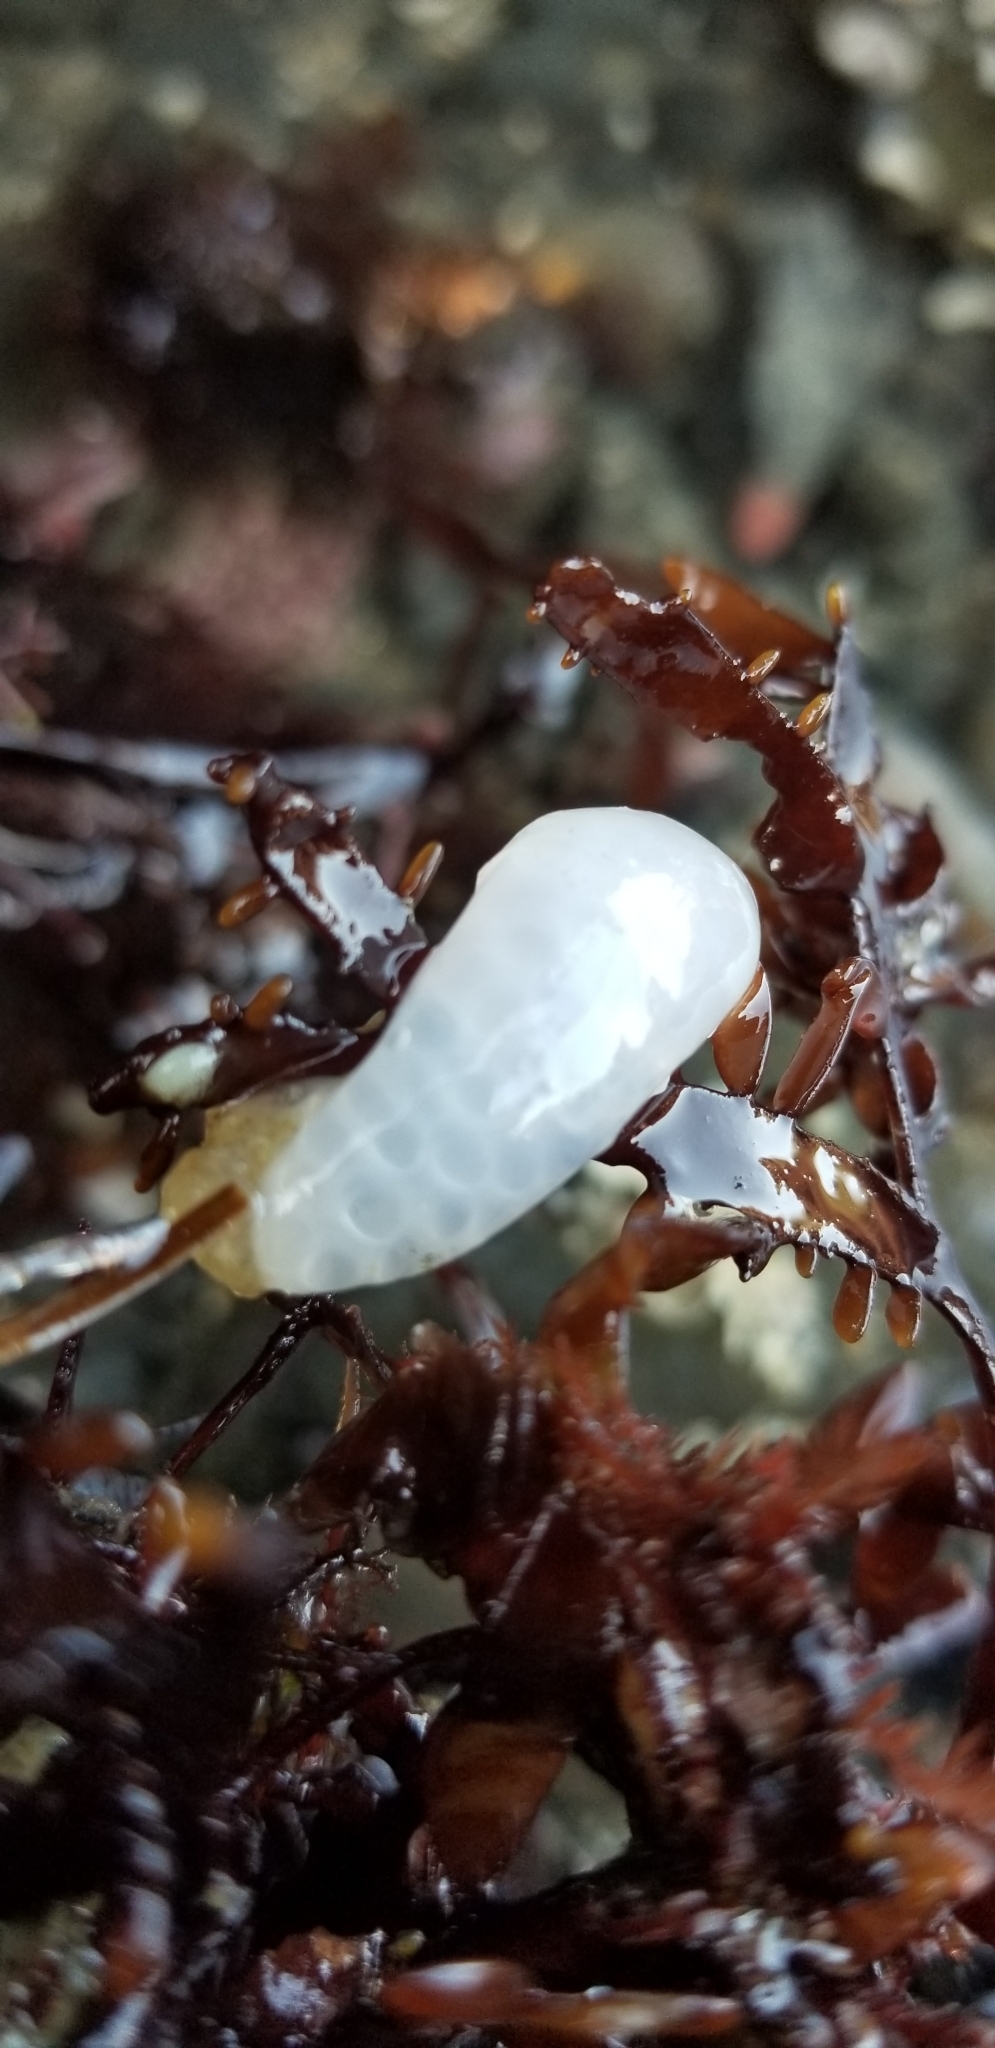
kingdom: Animalia
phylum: Mollusca
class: Cephalopoda
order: Myopsida
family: Loliginidae
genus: Doryteuthis
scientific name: Doryteuthis opalescens
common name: Opalescent inshore squid
